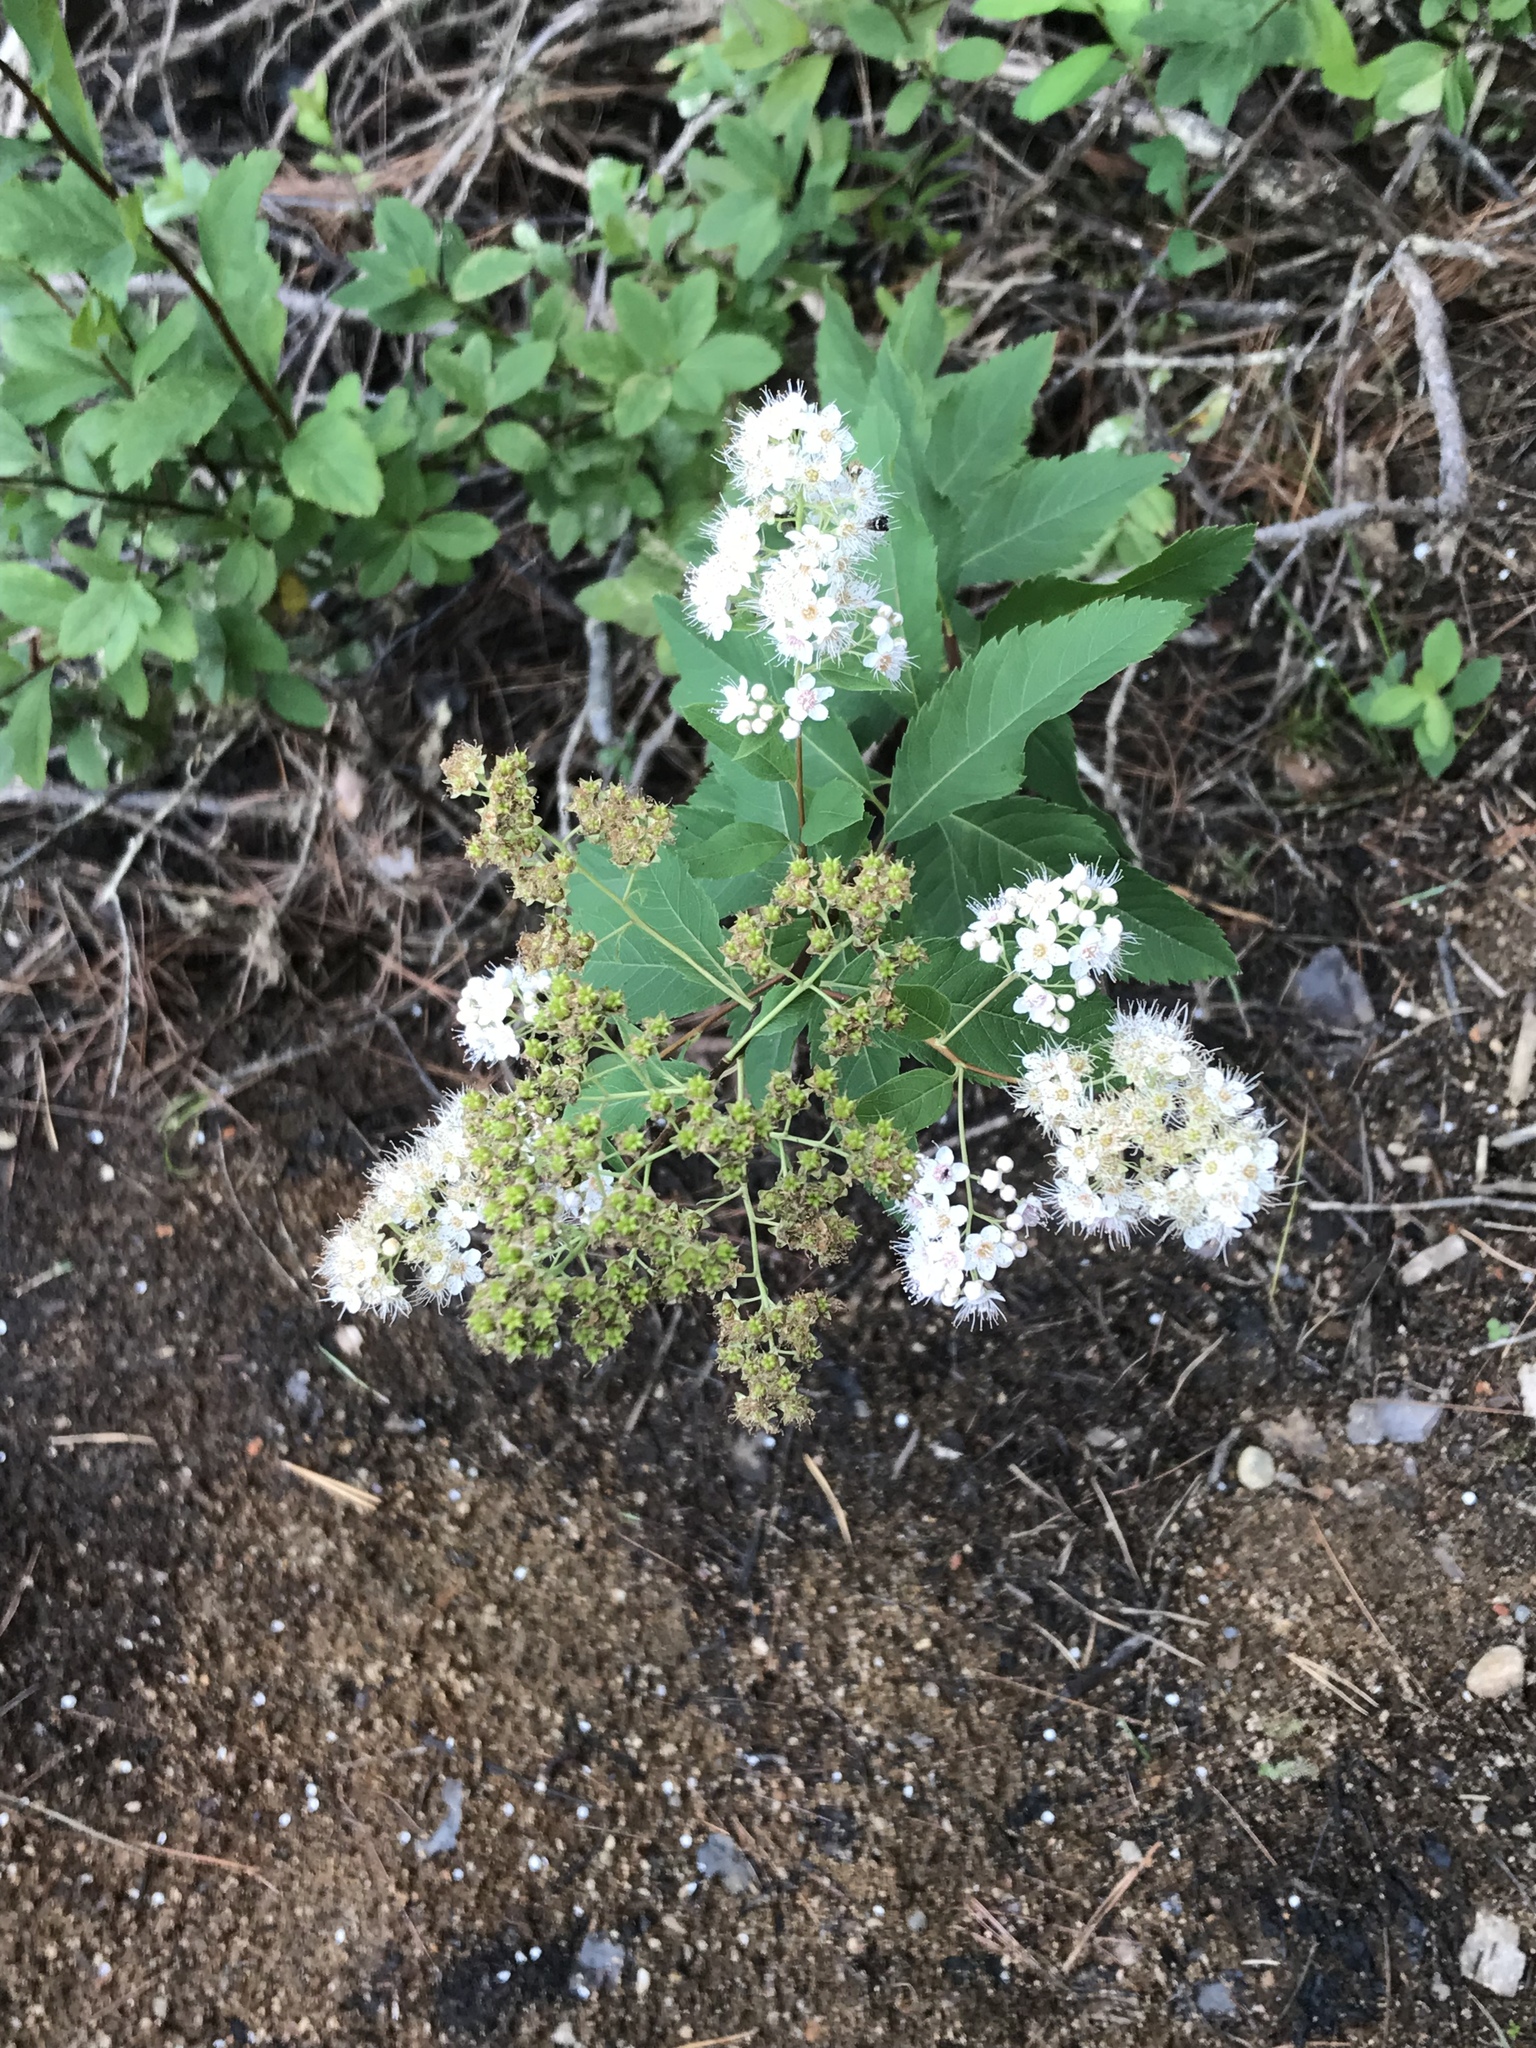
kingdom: Plantae
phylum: Tracheophyta
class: Magnoliopsida
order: Rosales
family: Rosaceae
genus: Spiraea
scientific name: Spiraea alba
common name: Pale bridewort
